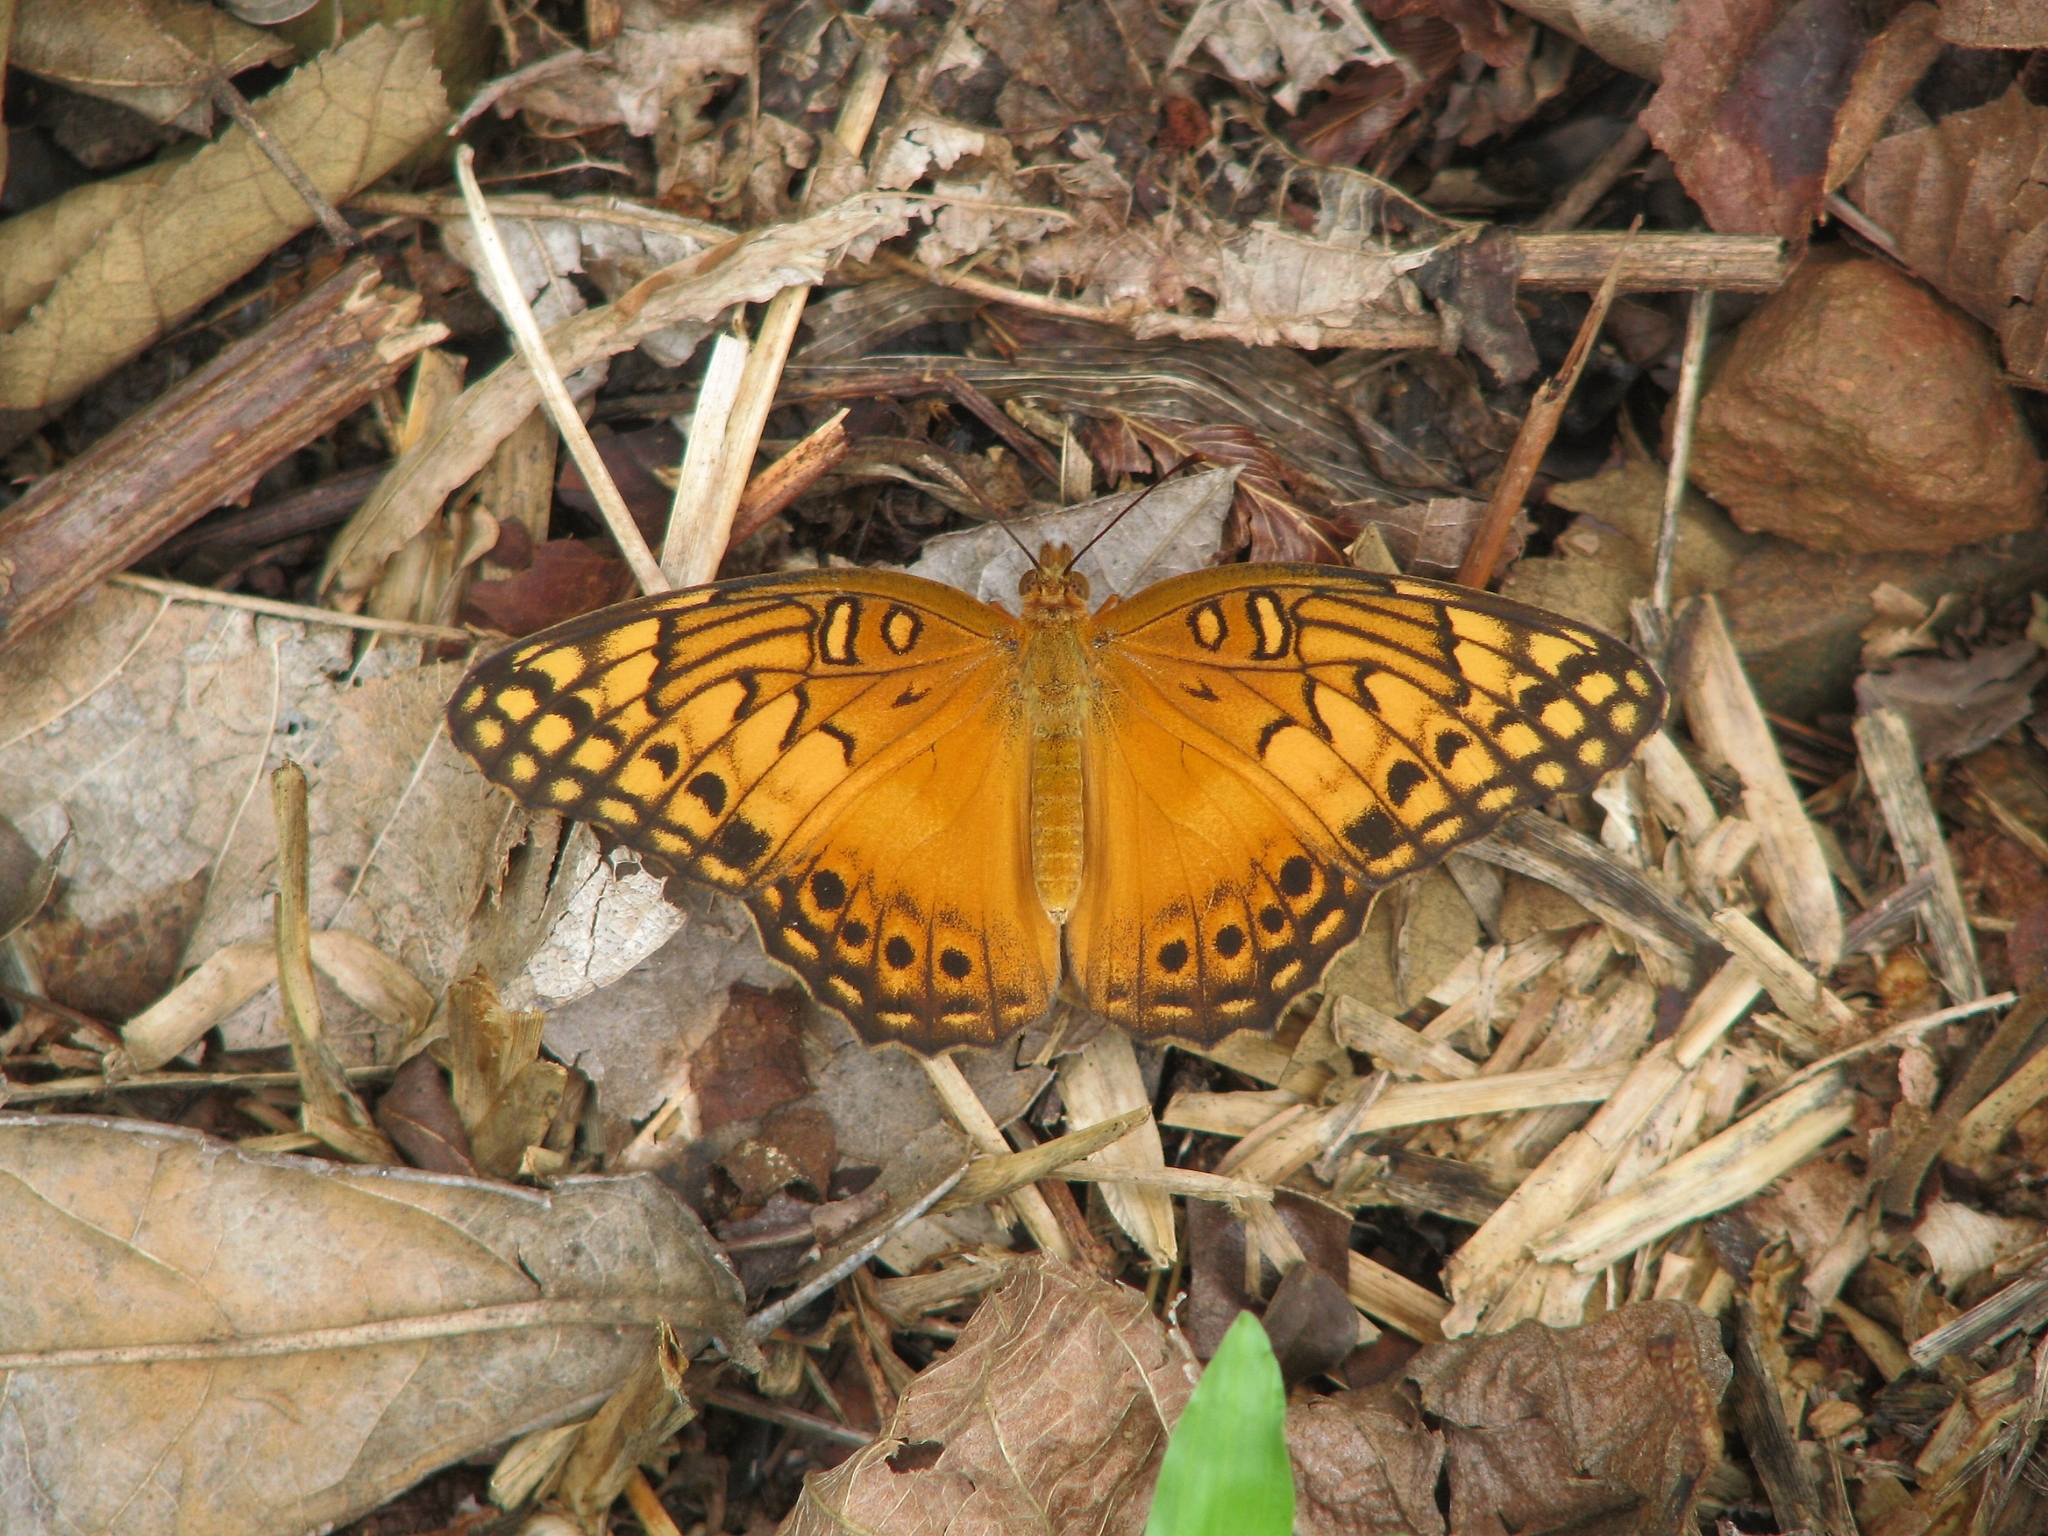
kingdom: Animalia
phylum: Arthropoda
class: Insecta
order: Lepidoptera
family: Nymphalidae
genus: Euptoieta
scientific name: Euptoieta hegesia
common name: Mexican fritillary
